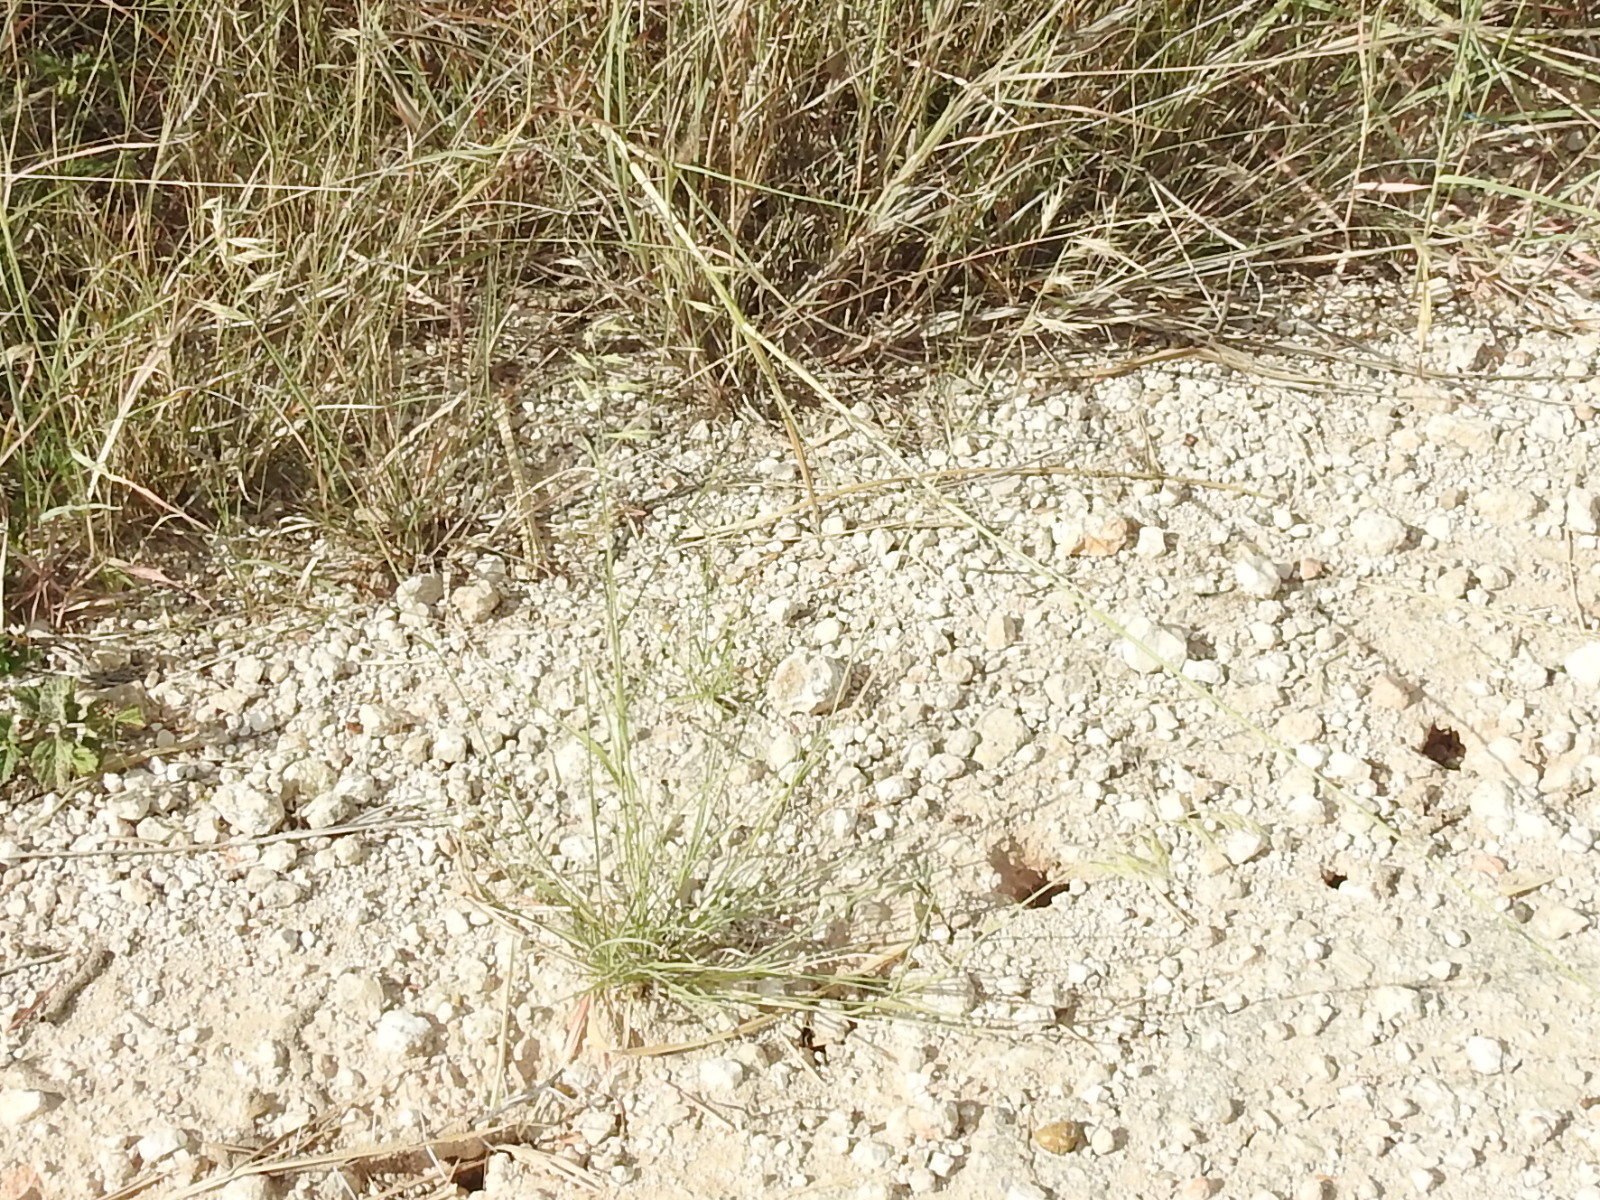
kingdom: Plantae
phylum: Tracheophyta
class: Liliopsida
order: Poales
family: Poaceae
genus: Bouteloua
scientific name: Bouteloua repens
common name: Slender grama
